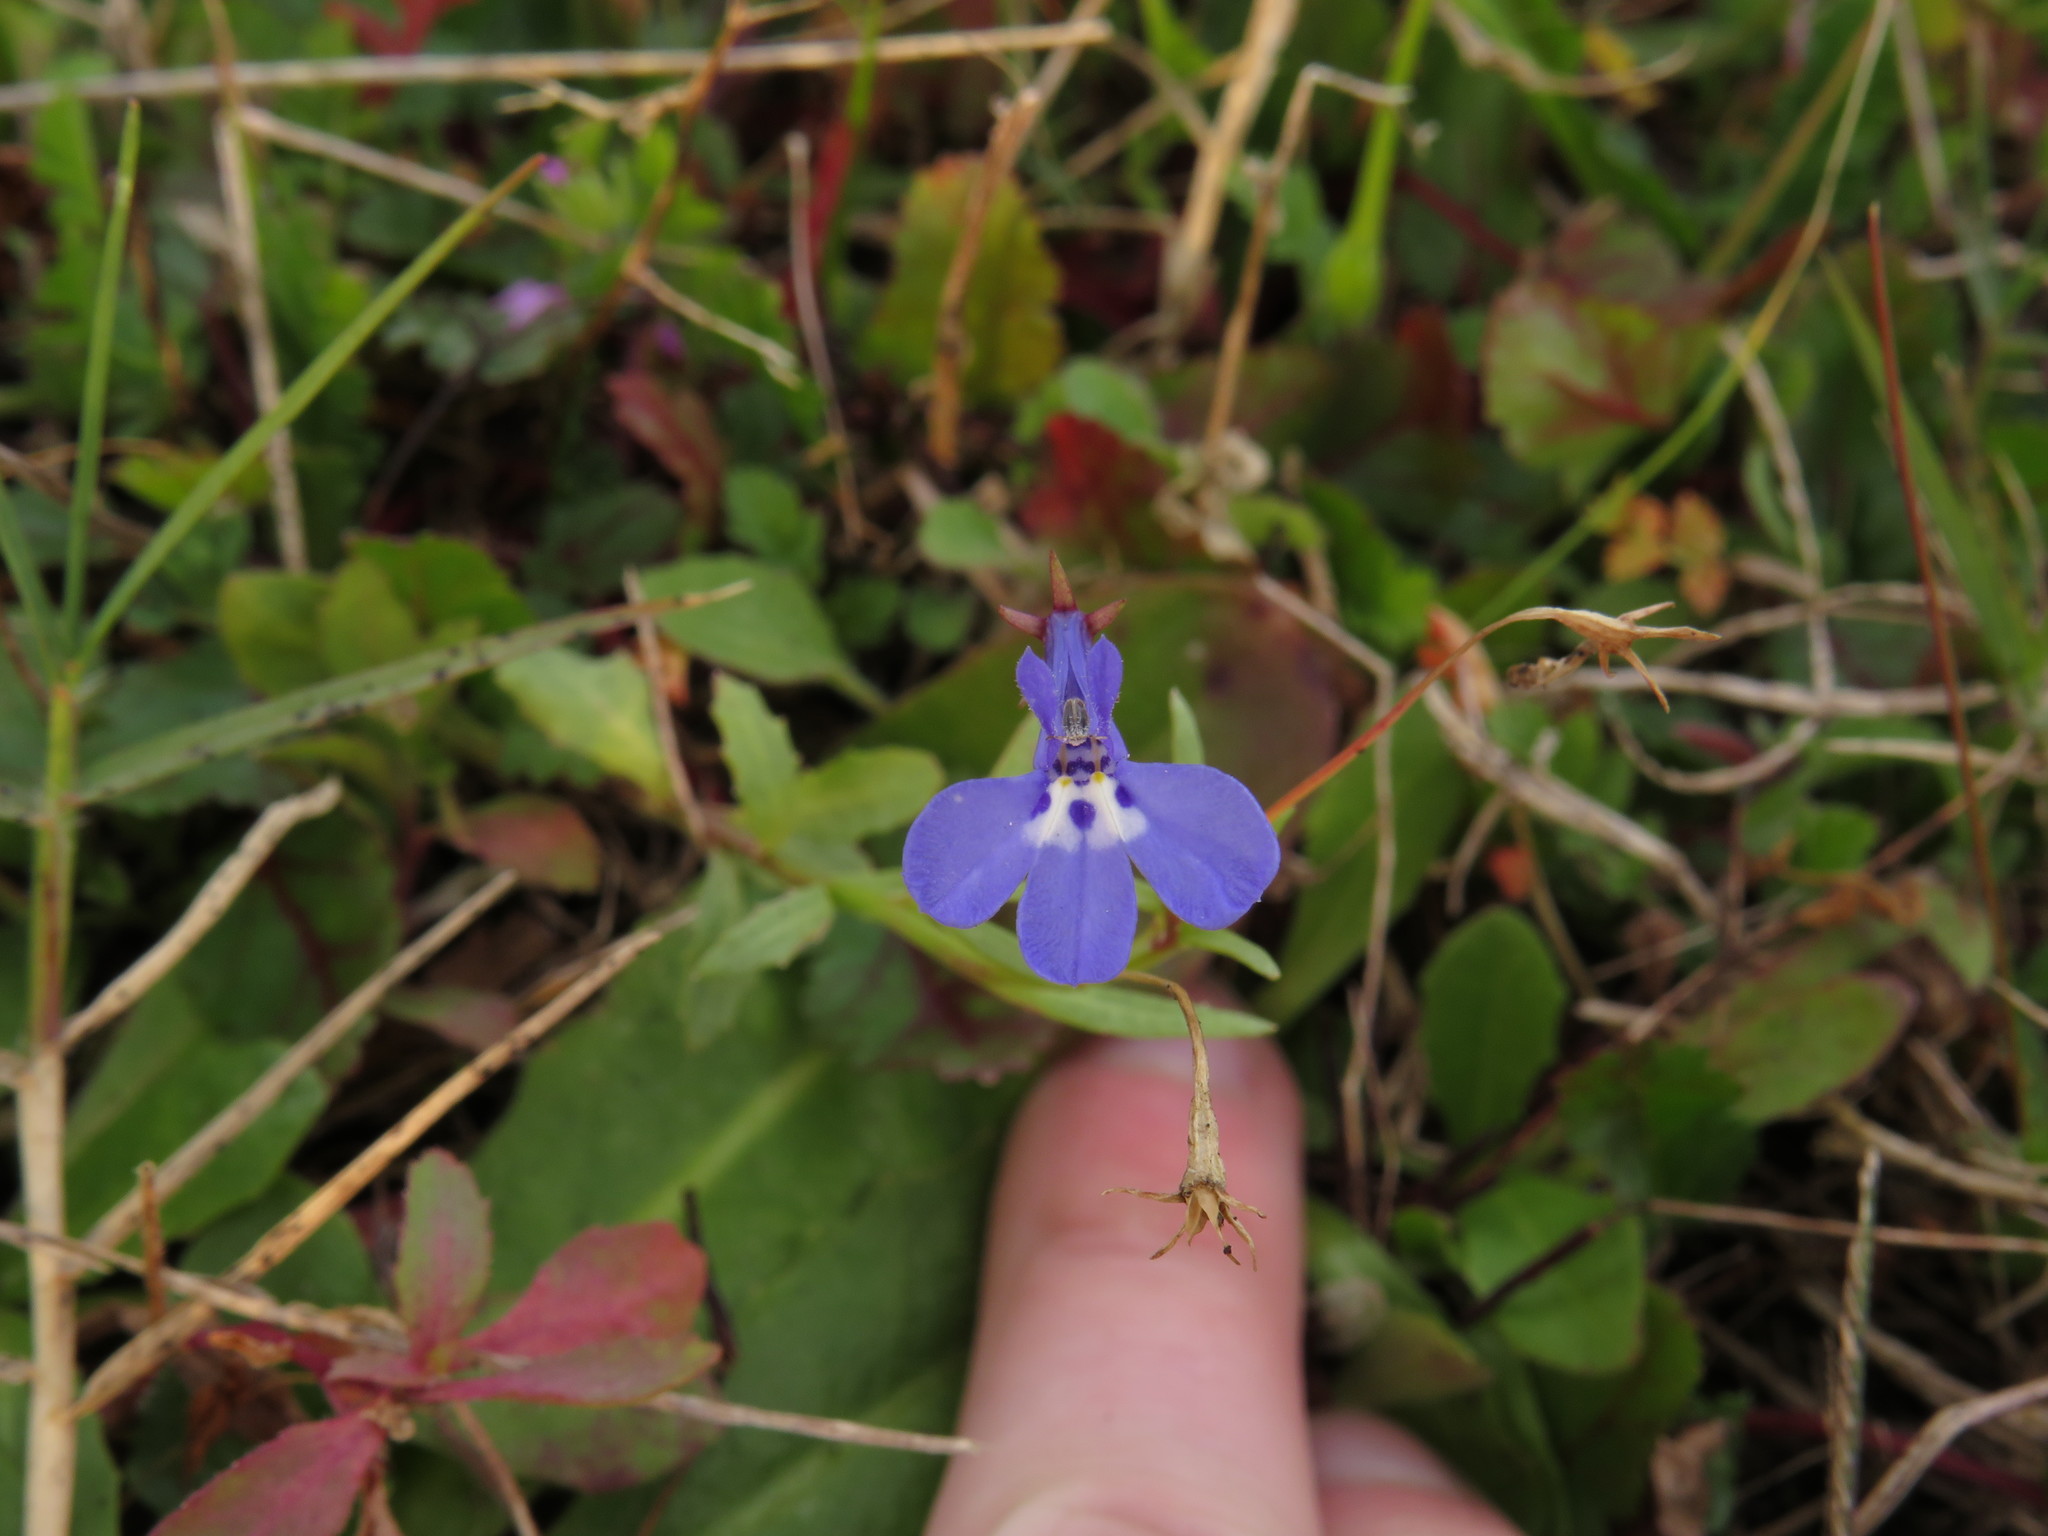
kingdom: Plantae
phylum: Tracheophyta
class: Magnoliopsida
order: Asterales
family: Campanulaceae
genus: Lobelia
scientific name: Lobelia erinus
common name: Edging lobelia
